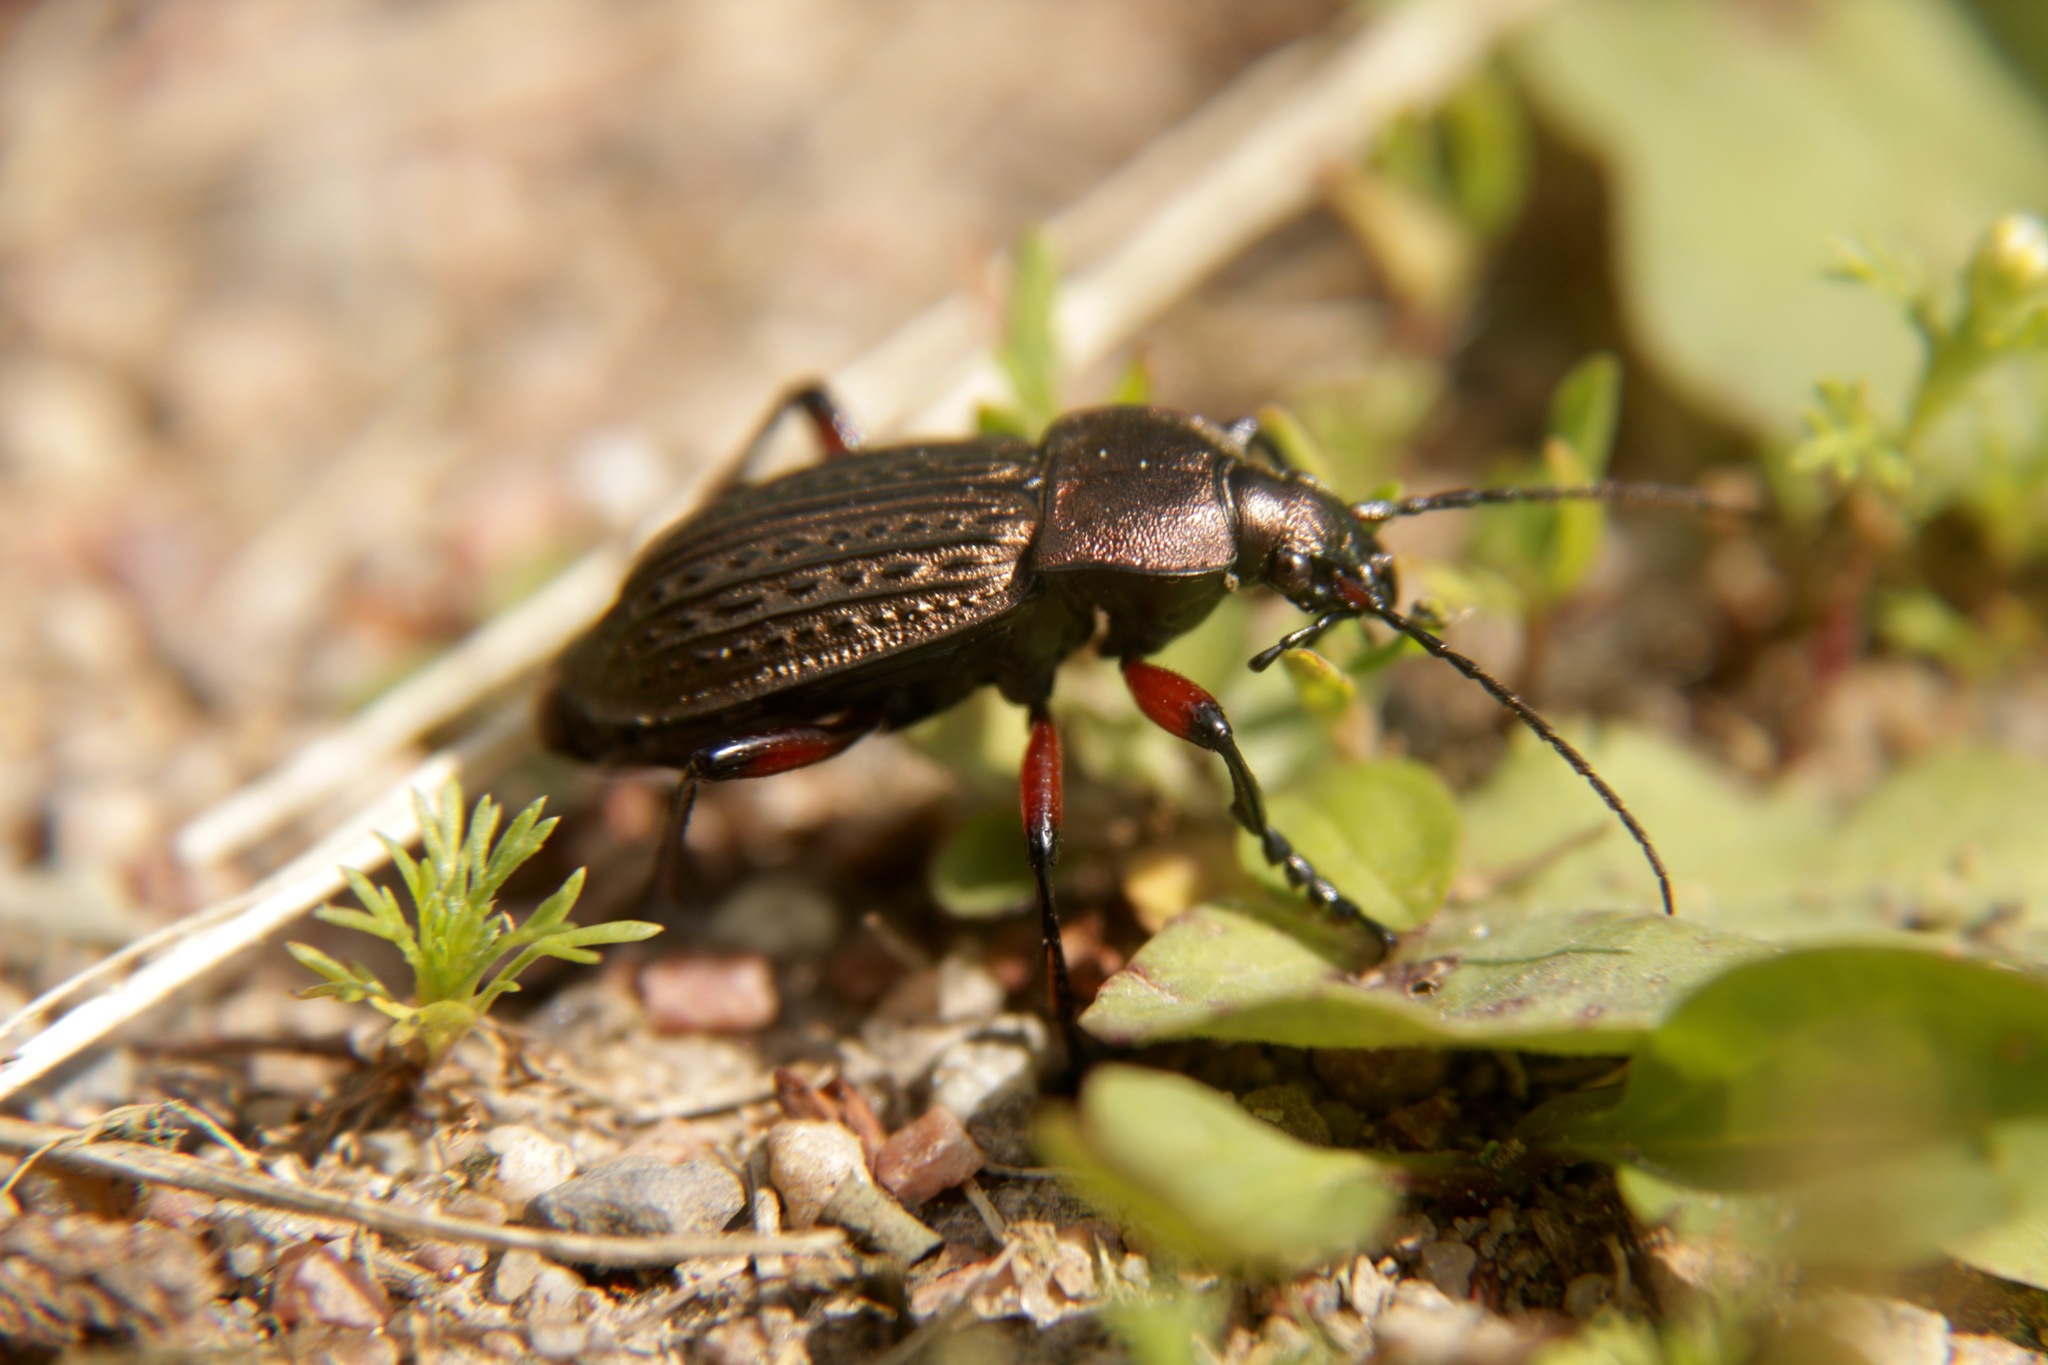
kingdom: Animalia
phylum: Arthropoda
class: Insecta
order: Coleoptera
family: Carabidae
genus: Carabus
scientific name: Carabus cancellatus
